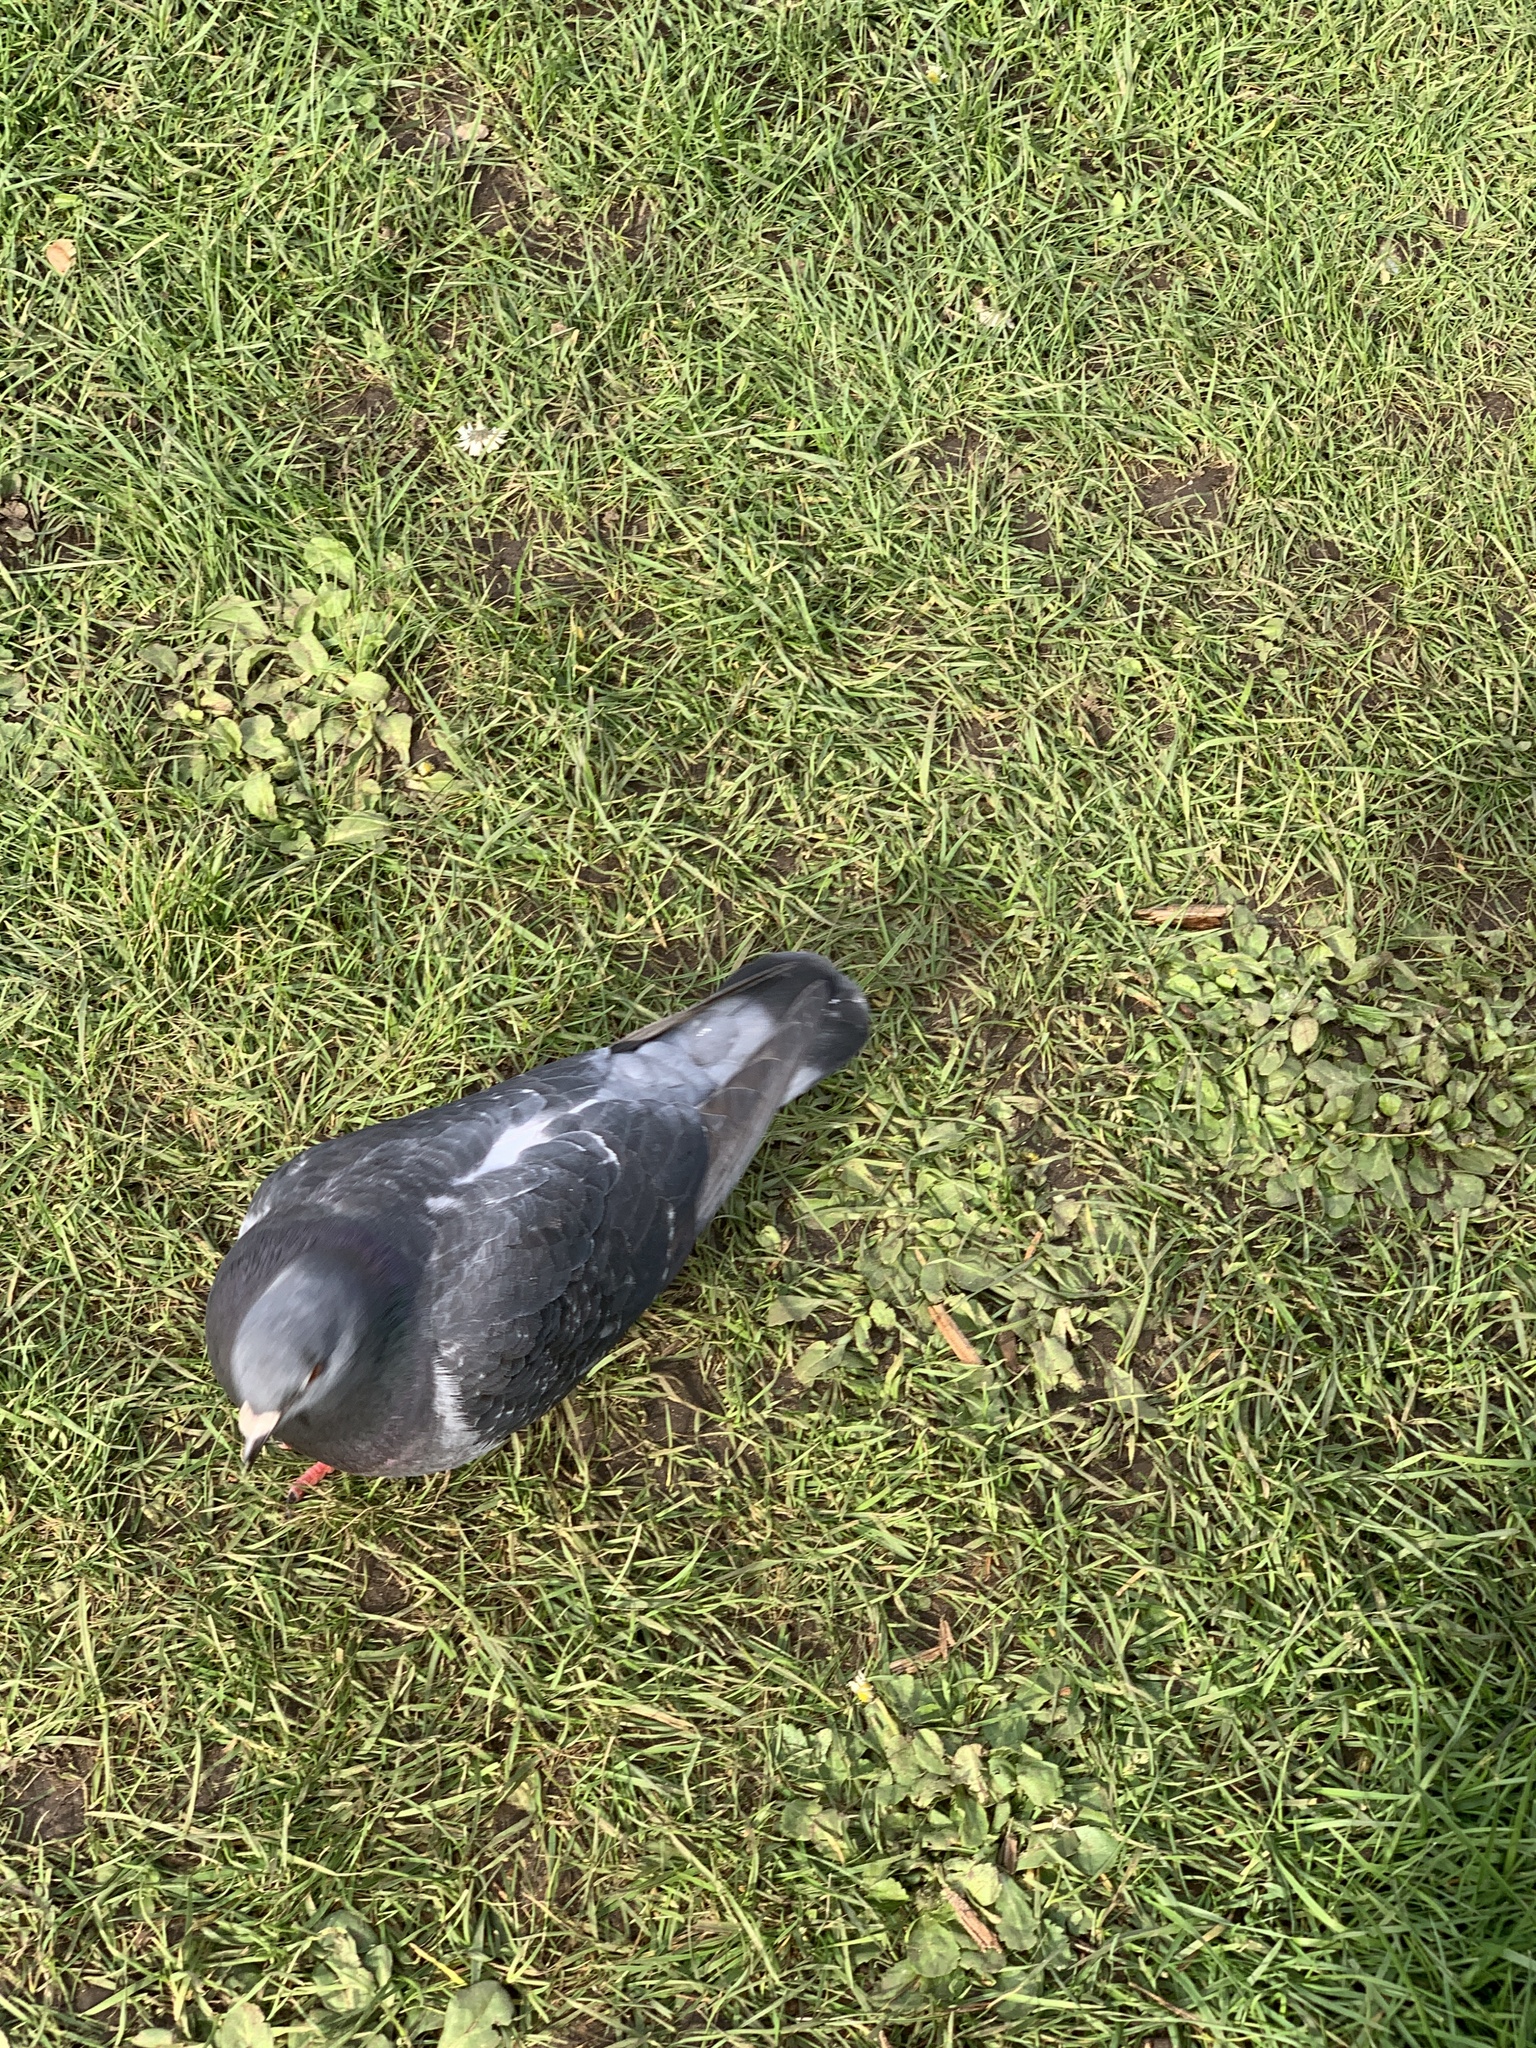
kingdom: Animalia
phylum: Chordata
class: Aves
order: Columbiformes
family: Columbidae
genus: Columba
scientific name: Columba livia
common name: Rock pigeon
